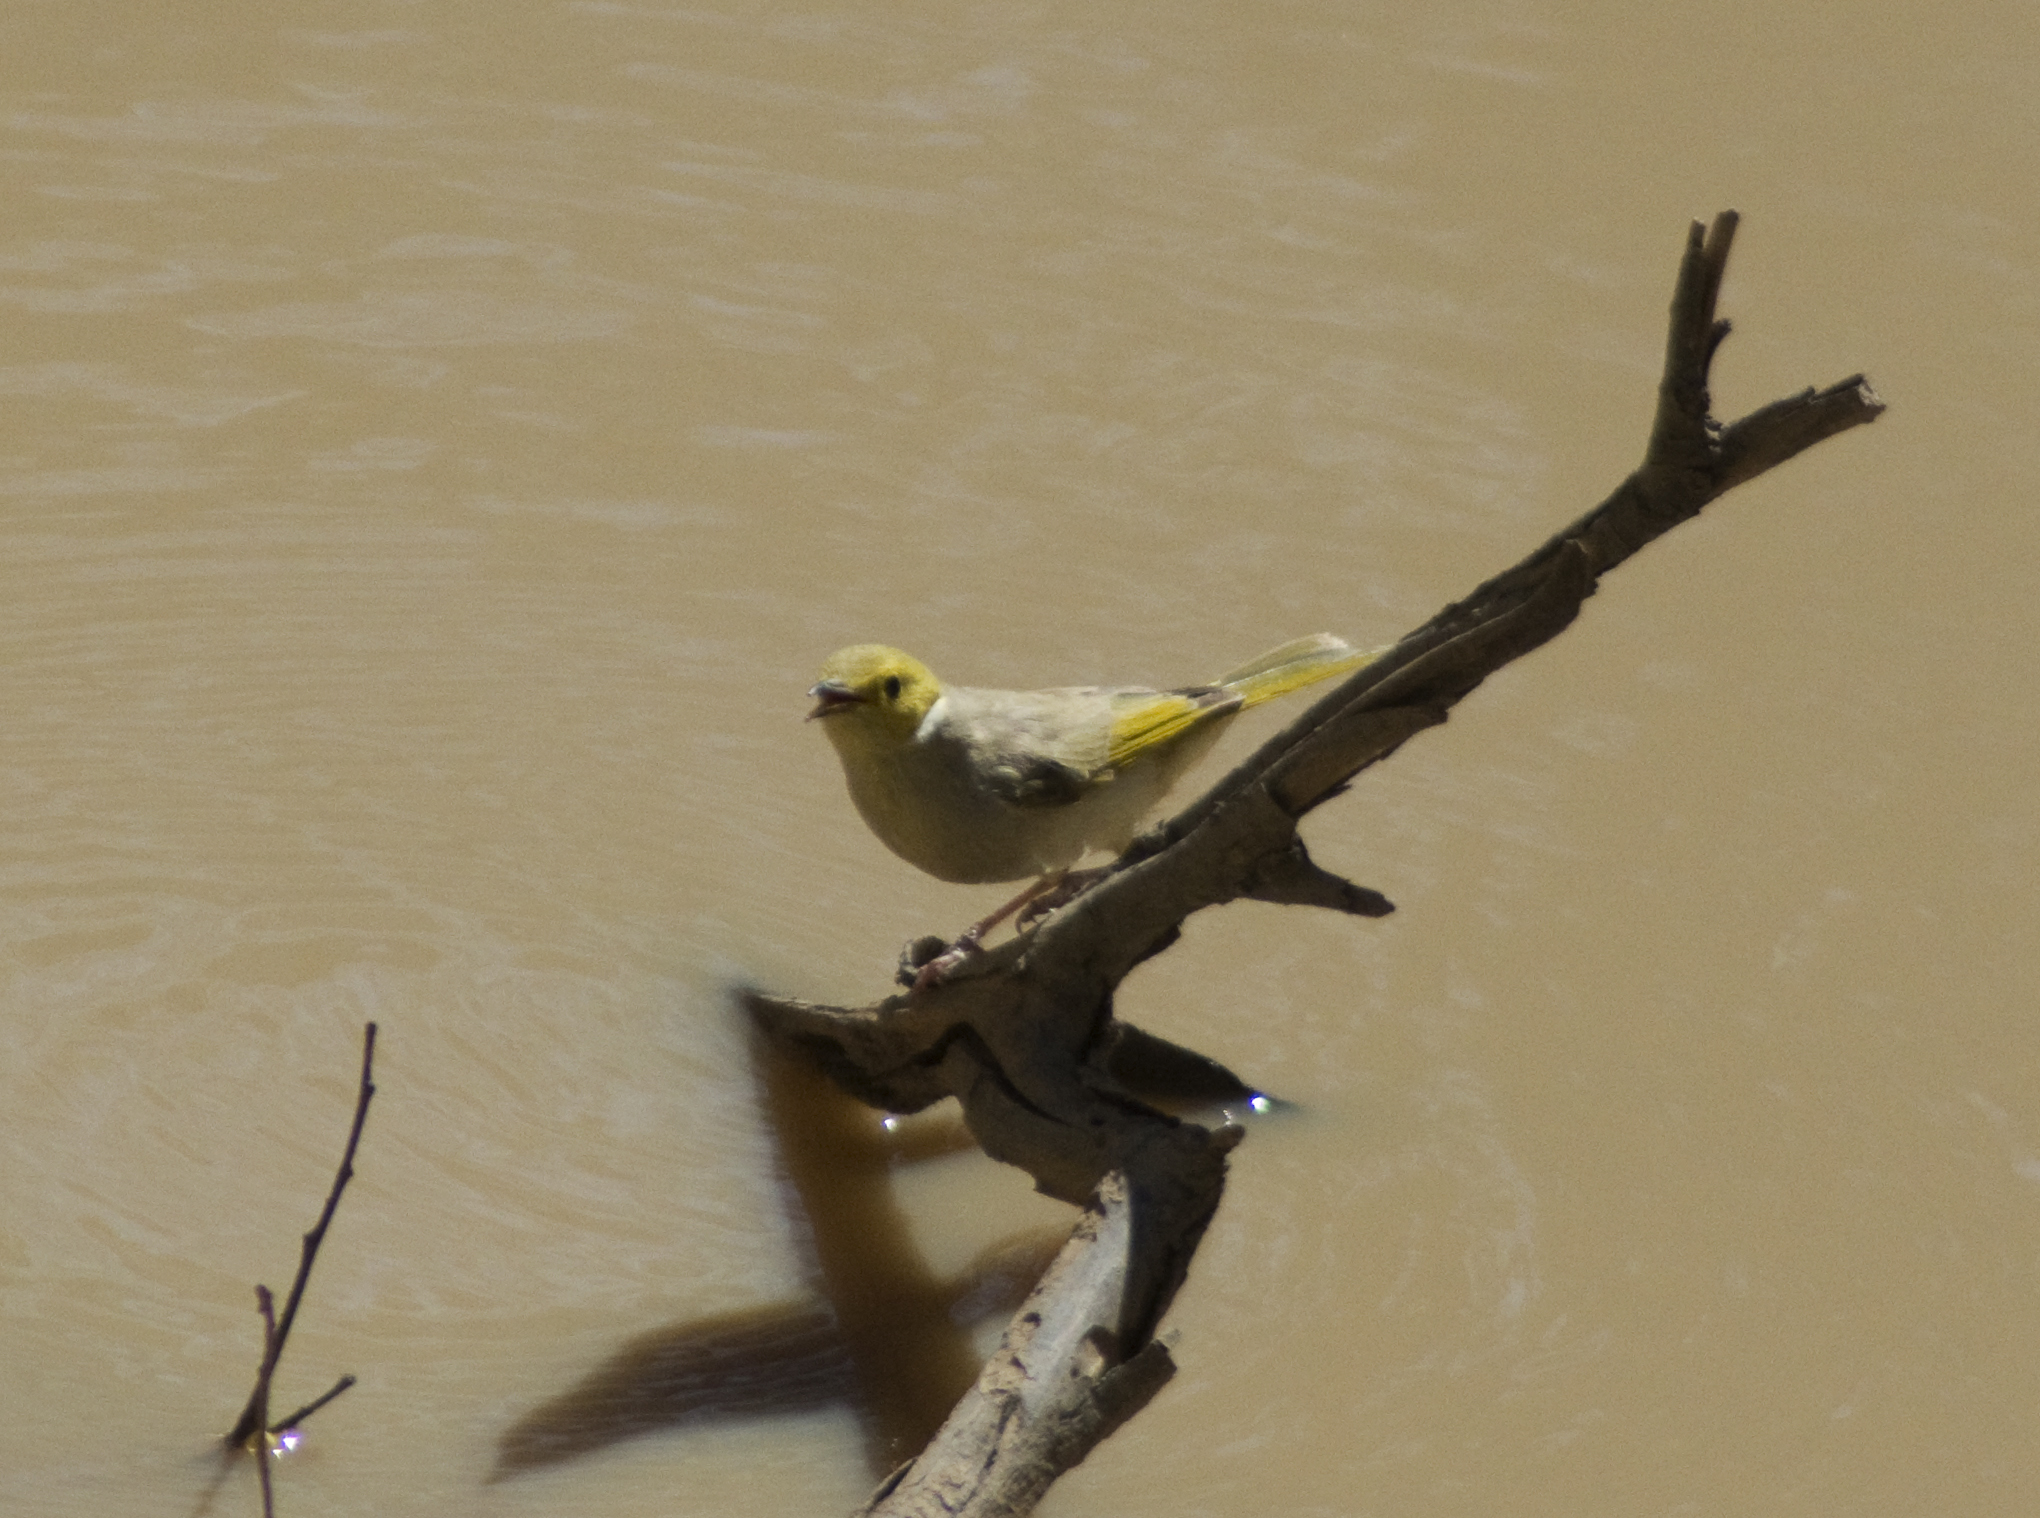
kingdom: Animalia
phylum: Chordata
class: Aves
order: Passeriformes
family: Meliphagidae
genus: Ptilotula
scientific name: Ptilotula penicillata
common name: White-plumed honeyeater
